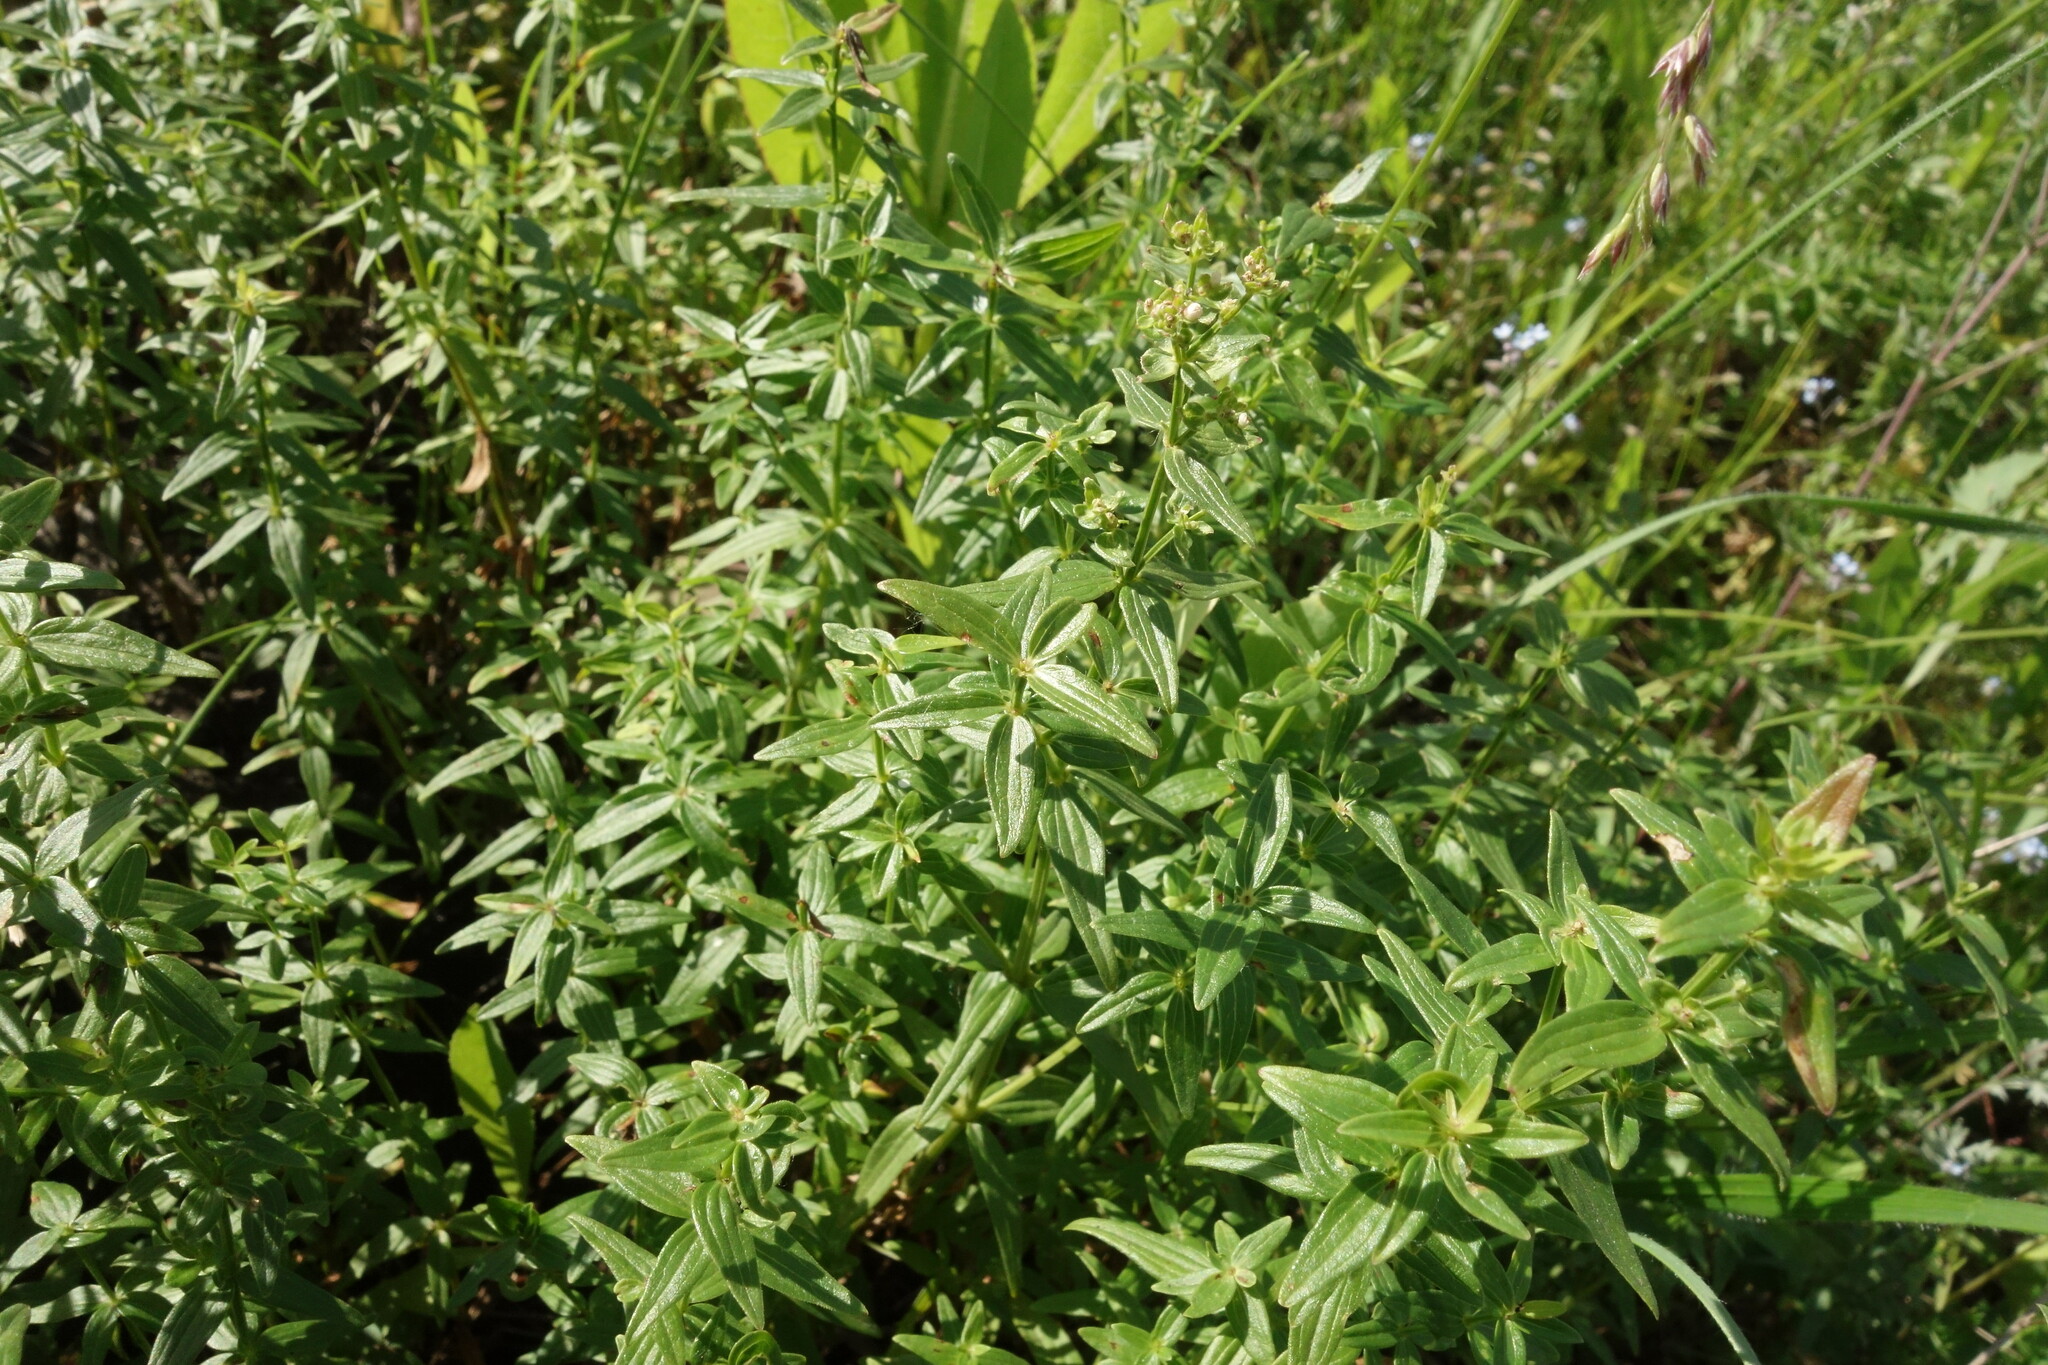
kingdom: Plantae
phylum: Tracheophyta
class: Magnoliopsida
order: Gentianales
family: Rubiaceae
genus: Galium
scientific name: Galium boreale
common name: Northern bedstraw
